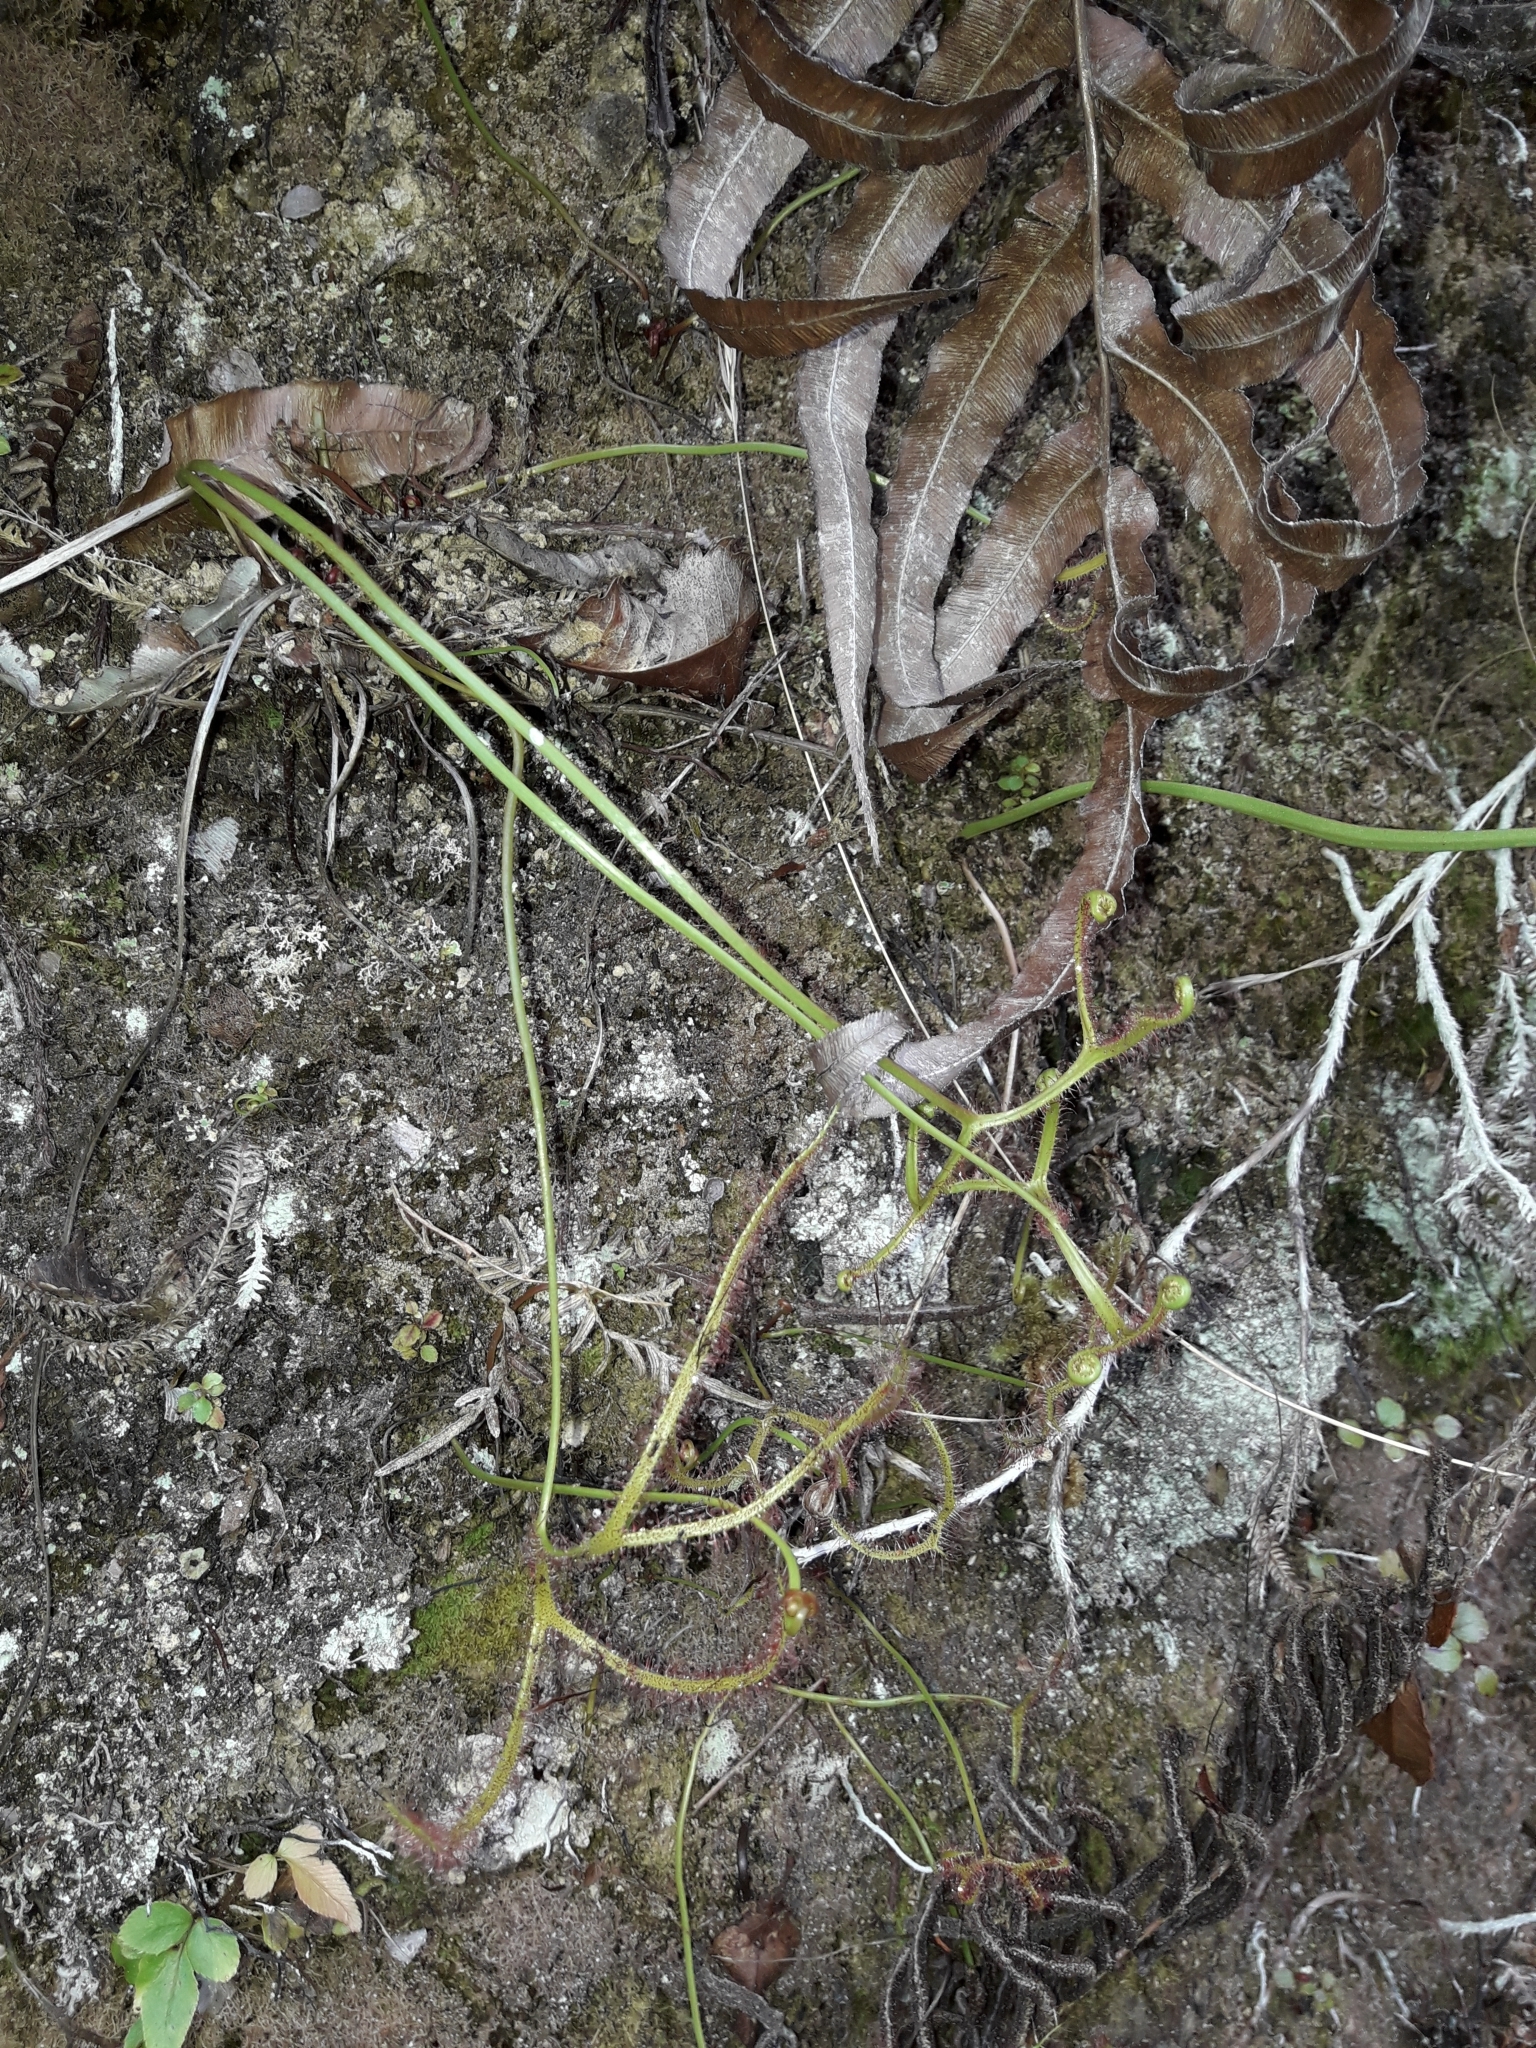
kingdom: Plantae
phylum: Tracheophyta
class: Magnoliopsida
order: Caryophyllales
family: Droseraceae
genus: Drosera
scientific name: Drosera binata
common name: Forked sundew
